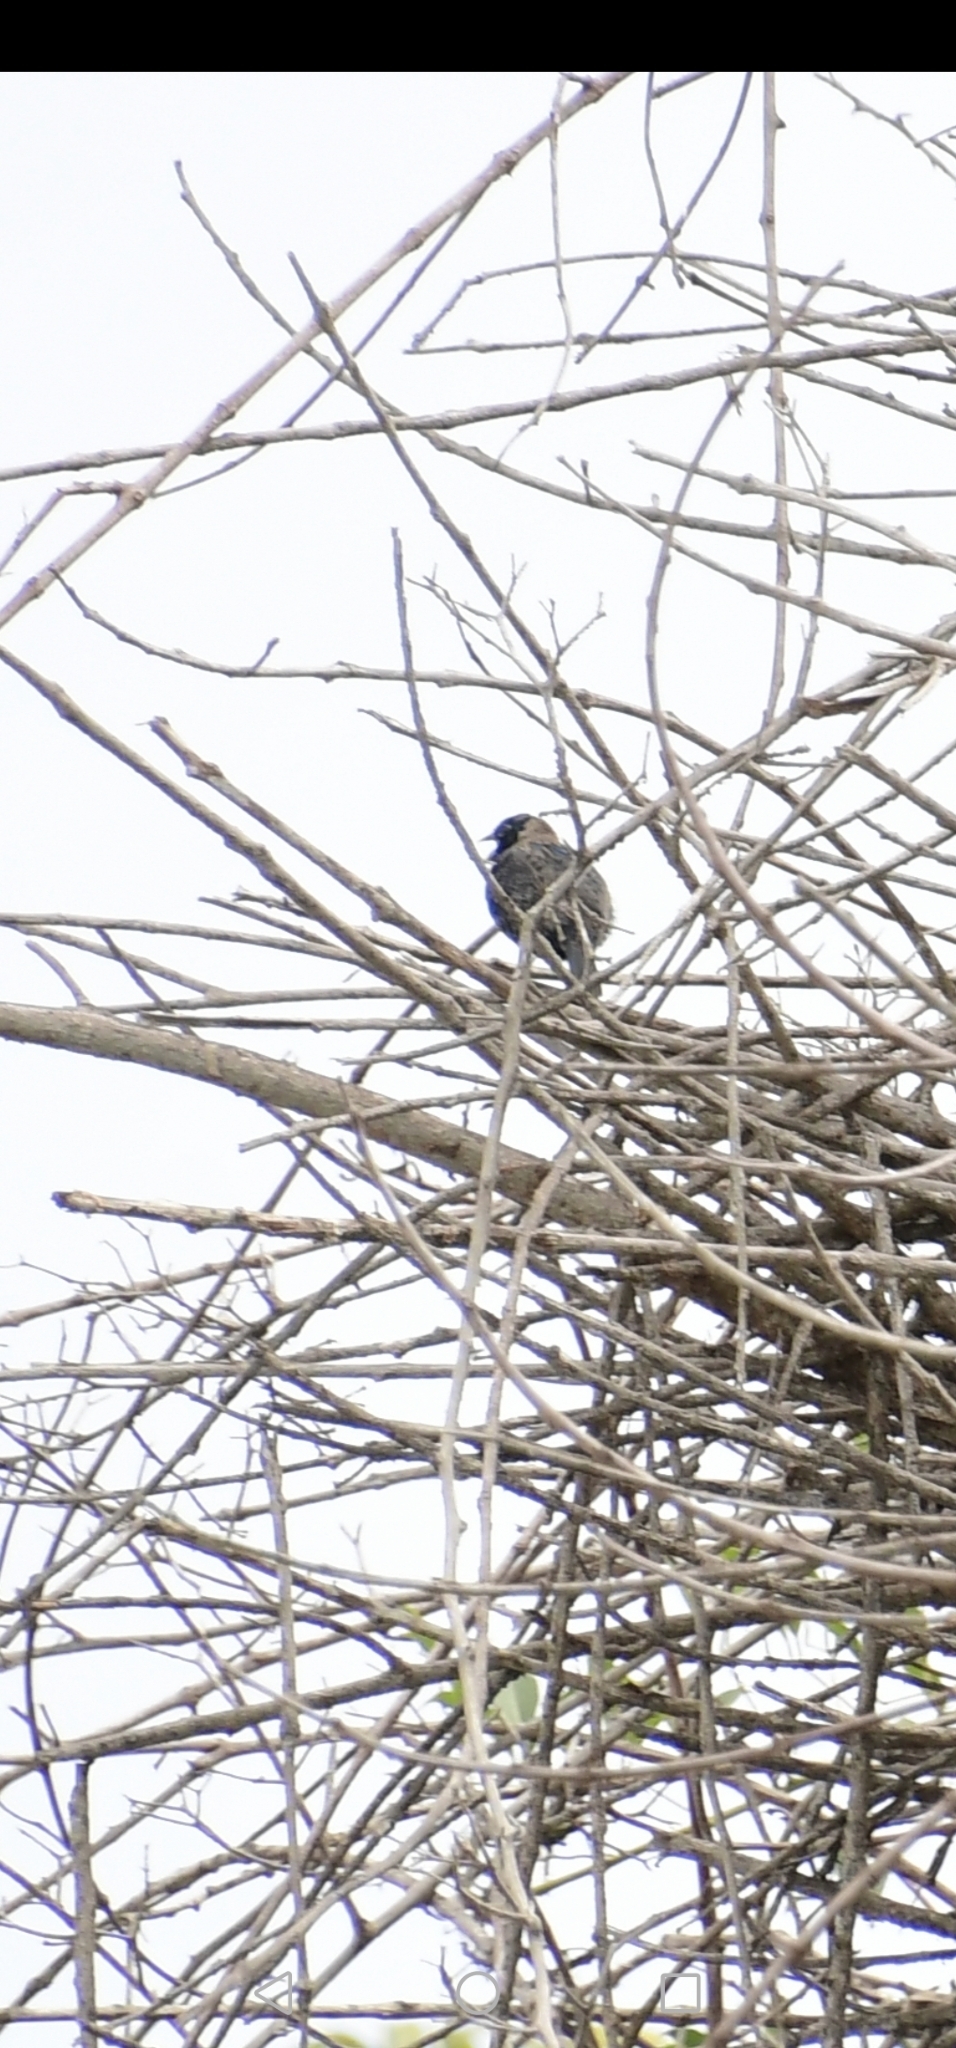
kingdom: Animalia
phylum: Chordata
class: Aves
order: Passeriformes
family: Thraupidae
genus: Volatinia
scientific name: Volatinia jacarina
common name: Blue-black grassquit
